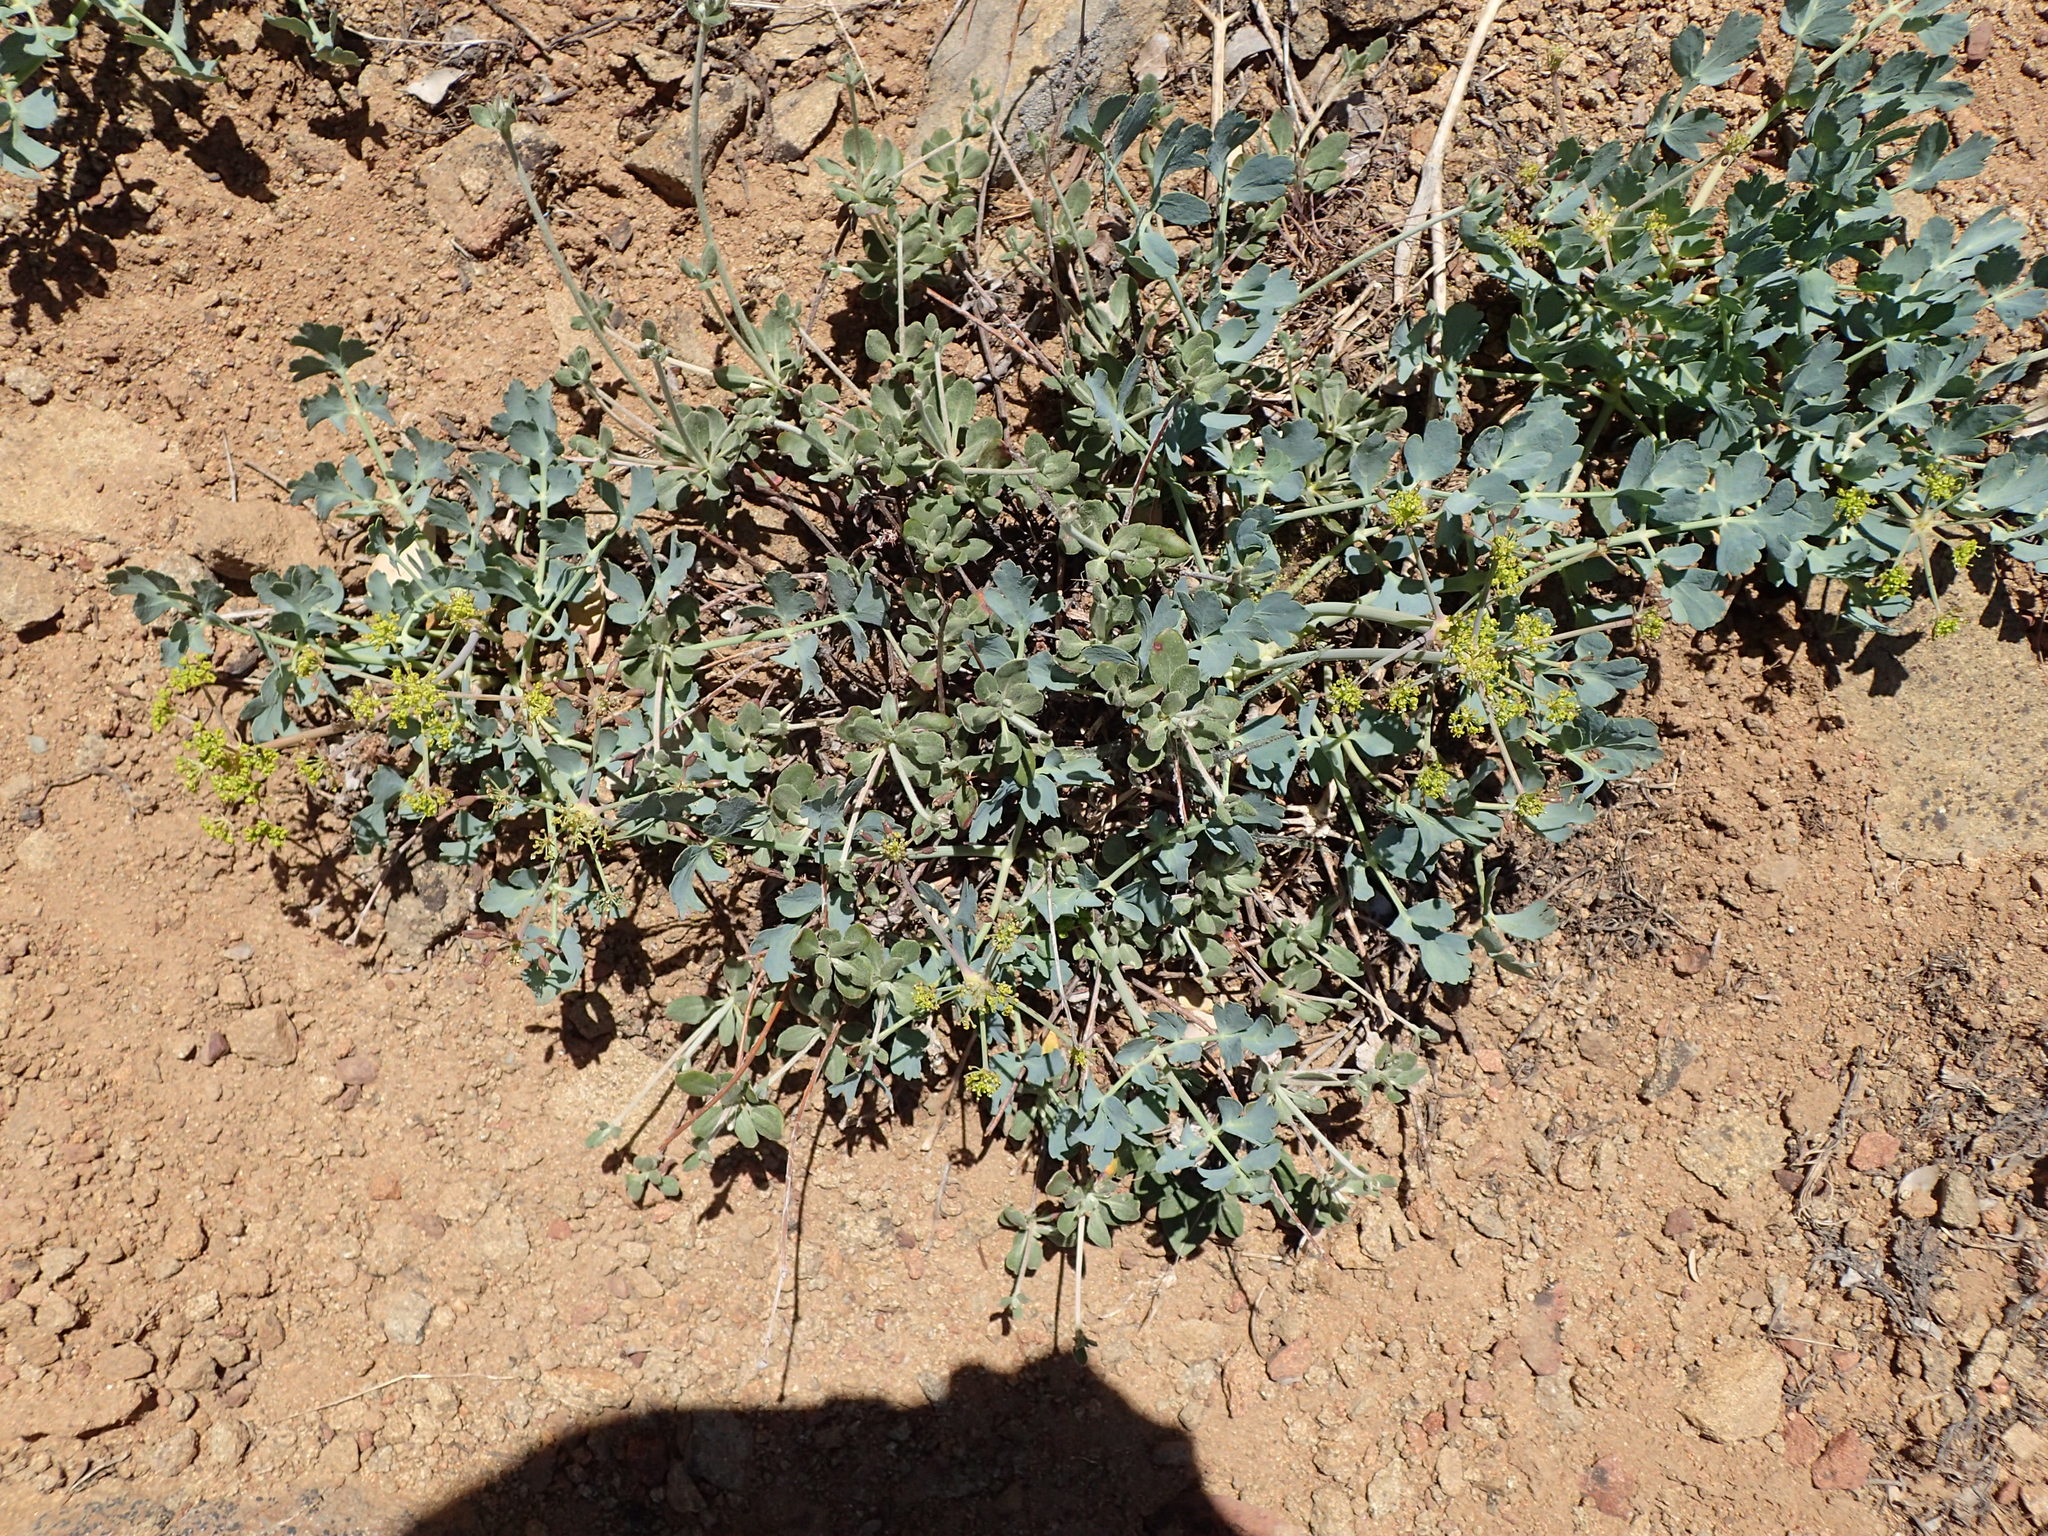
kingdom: Plantae
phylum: Tracheophyta
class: Magnoliopsida
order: Apiales
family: Apiaceae
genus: Lomatium
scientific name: Lomatium californicum
